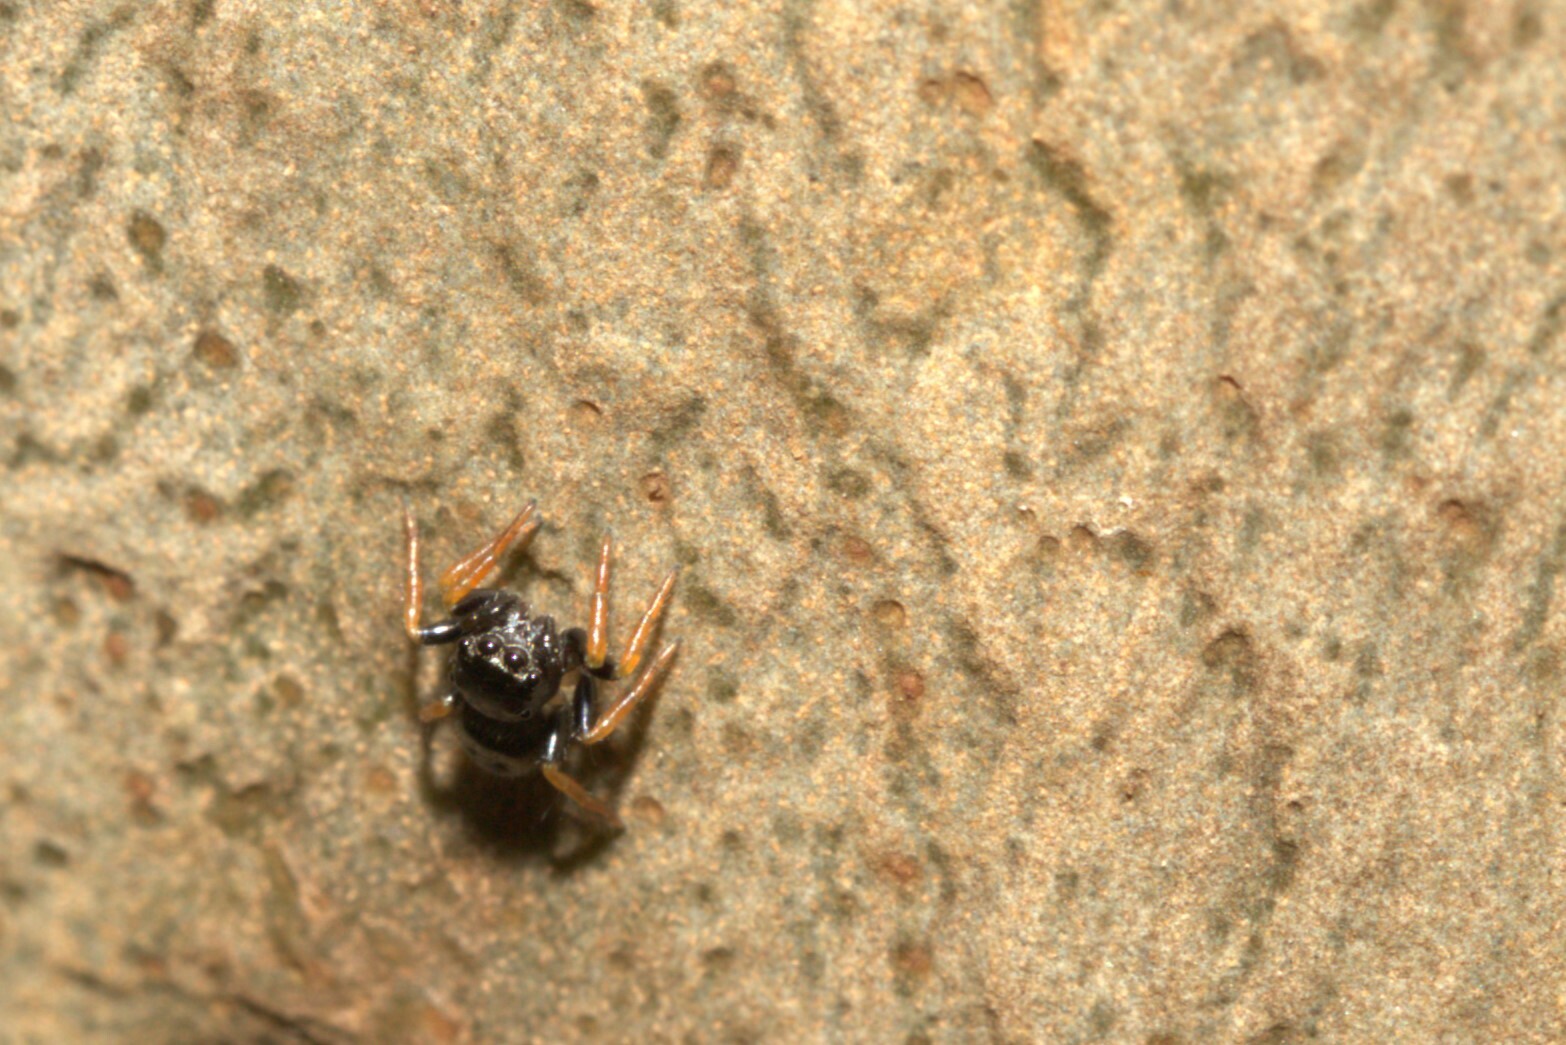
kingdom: Animalia
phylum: Arthropoda
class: Arachnida
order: Araneae
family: Salticidae
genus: Zenodorus
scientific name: Zenodorus orbiculatus
